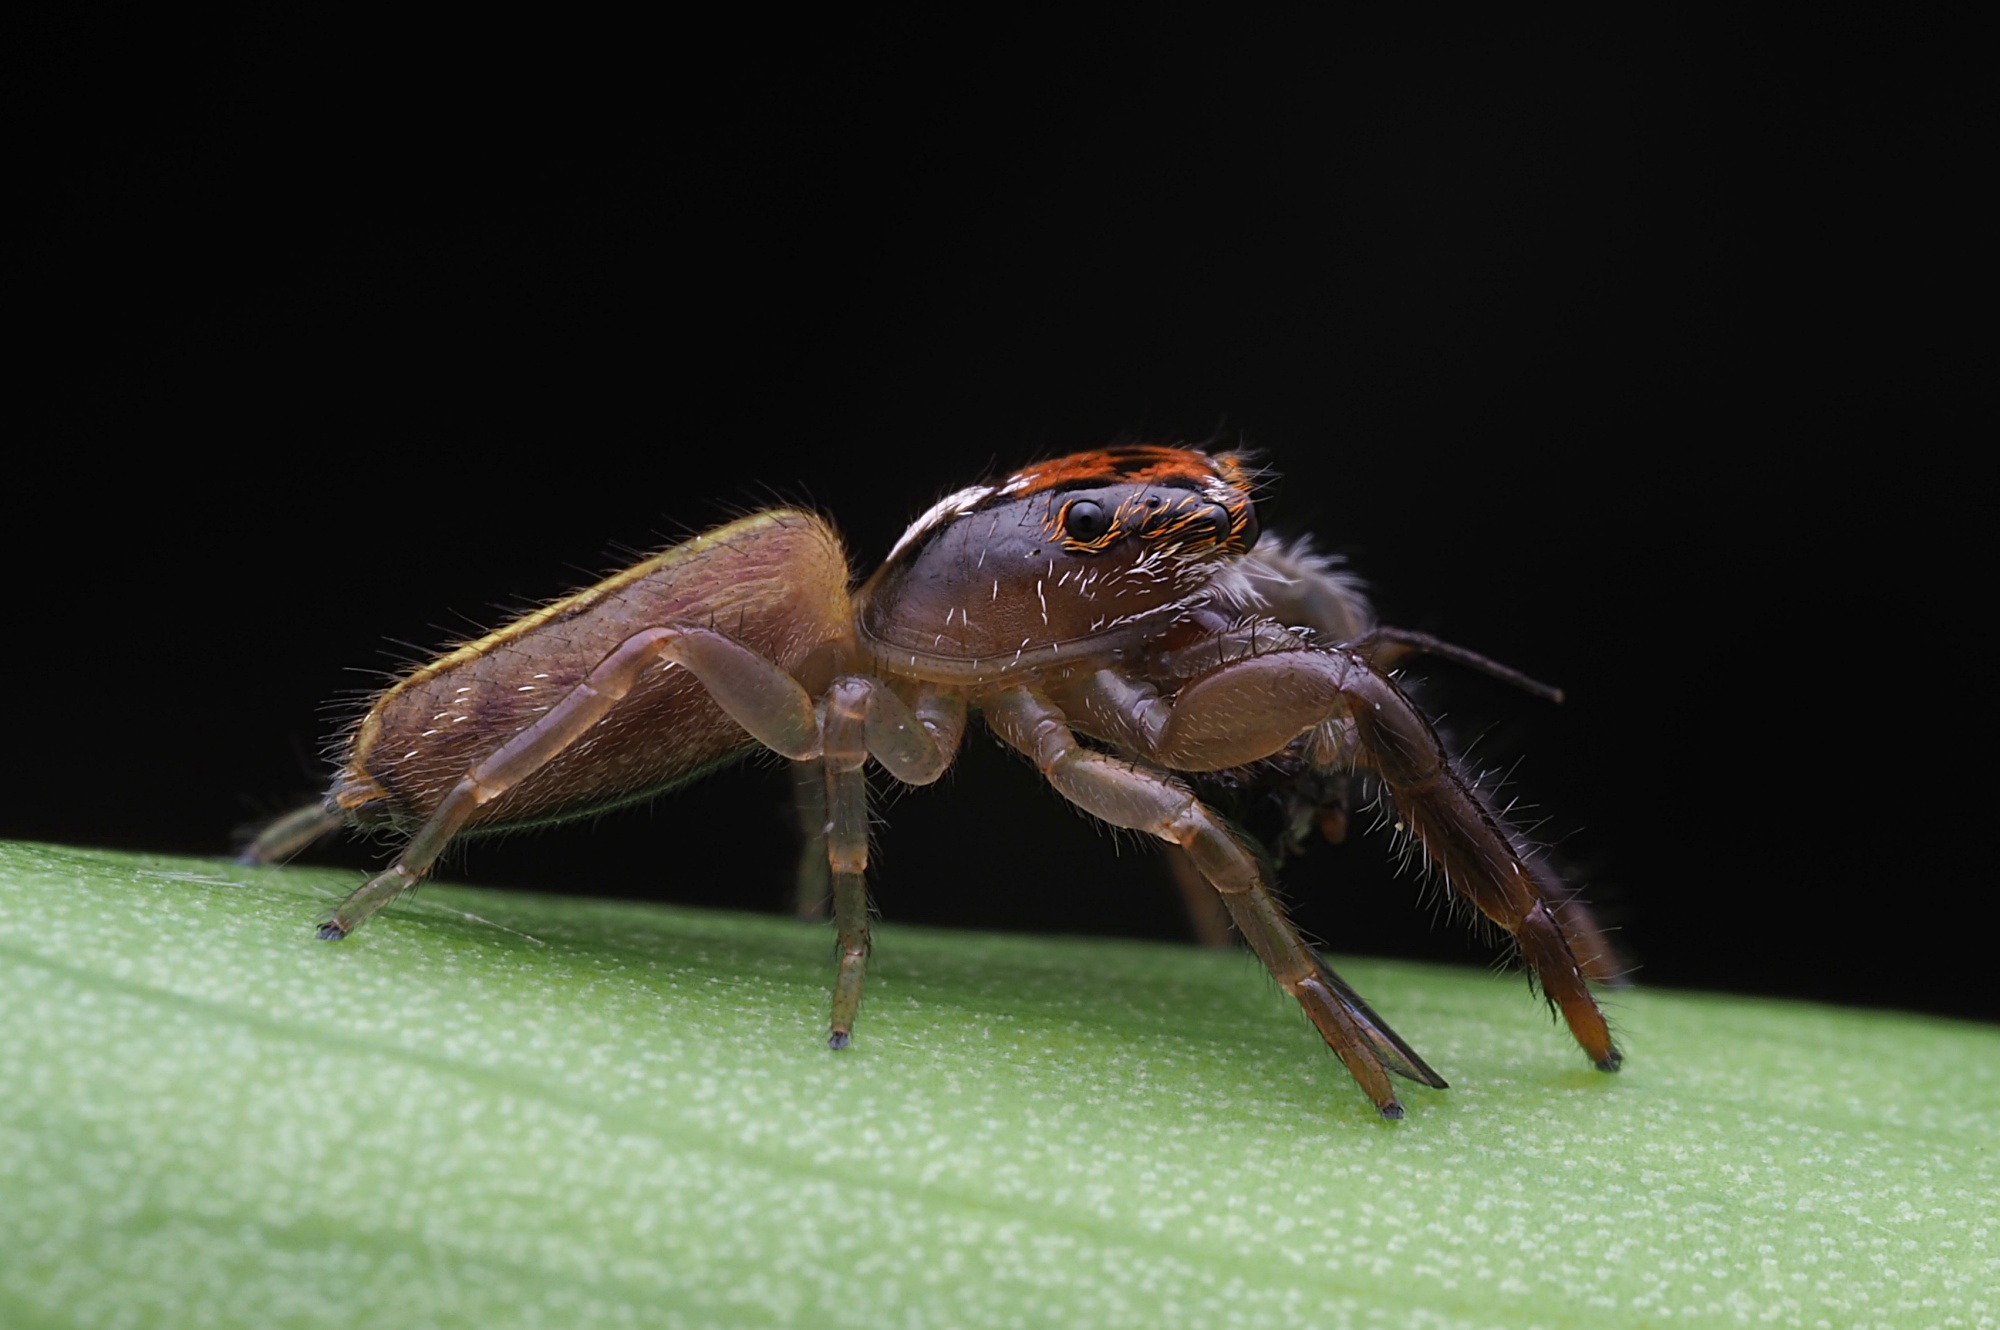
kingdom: Animalia
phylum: Arthropoda
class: Arachnida
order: Araneae
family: Salticidae
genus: Trite
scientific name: Trite planiceps
